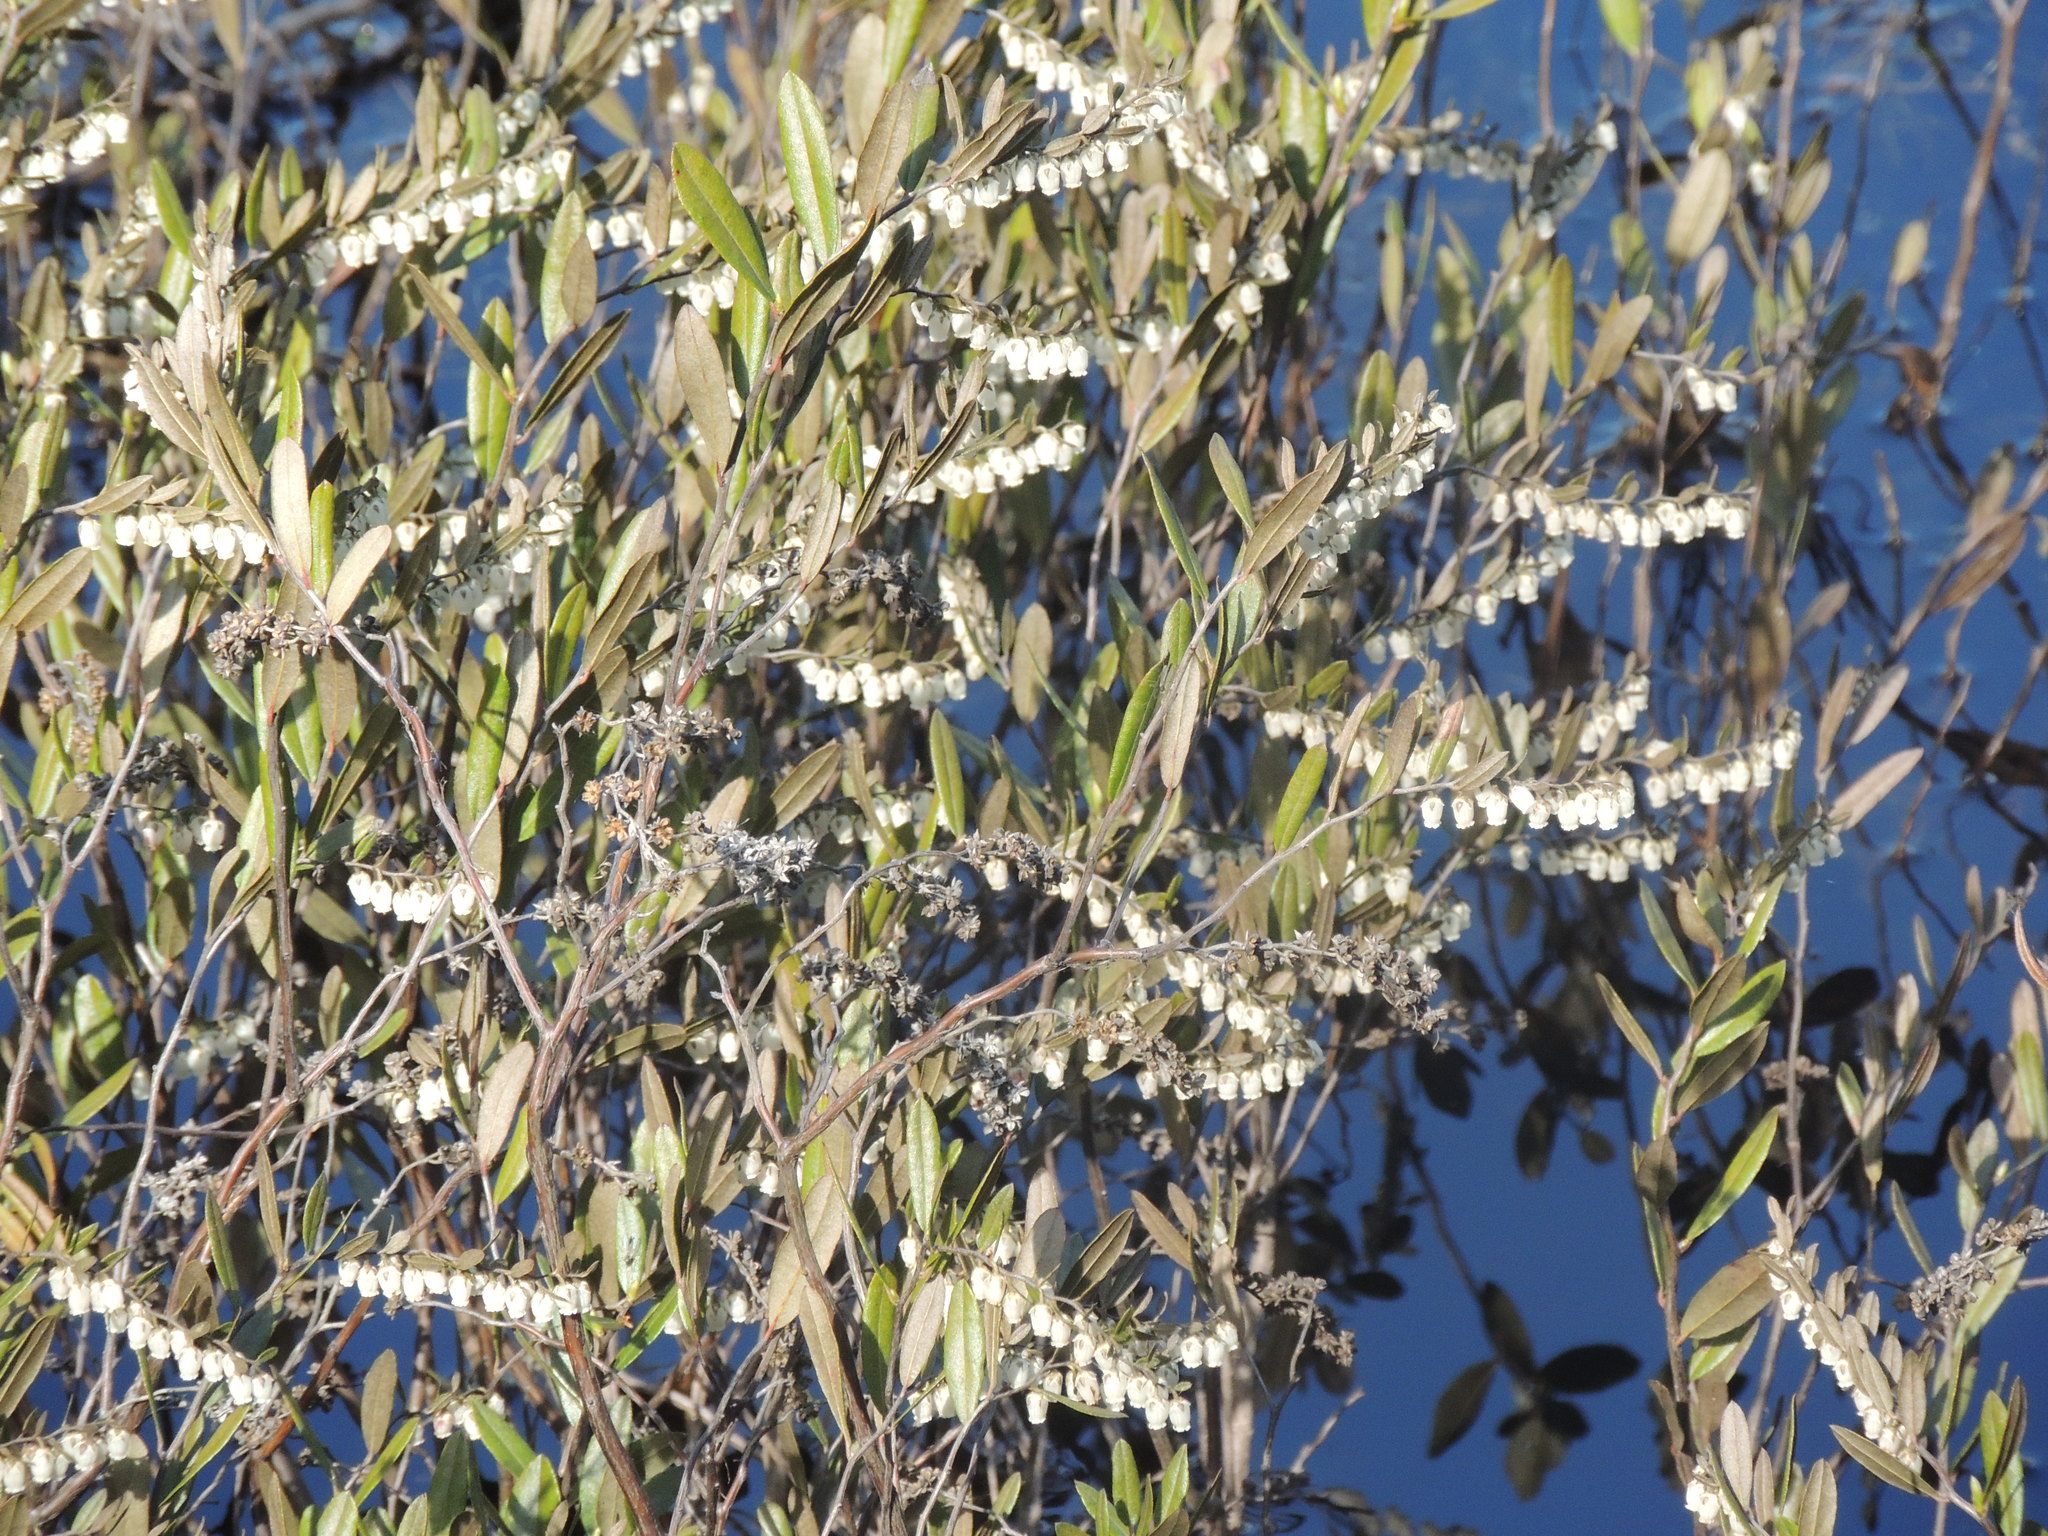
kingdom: Plantae
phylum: Tracheophyta
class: Magnoliopsida
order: Ericales
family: Ericaceae
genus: Chamaedaphne
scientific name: Chamaedaphne calyculata
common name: Leatherleaf
